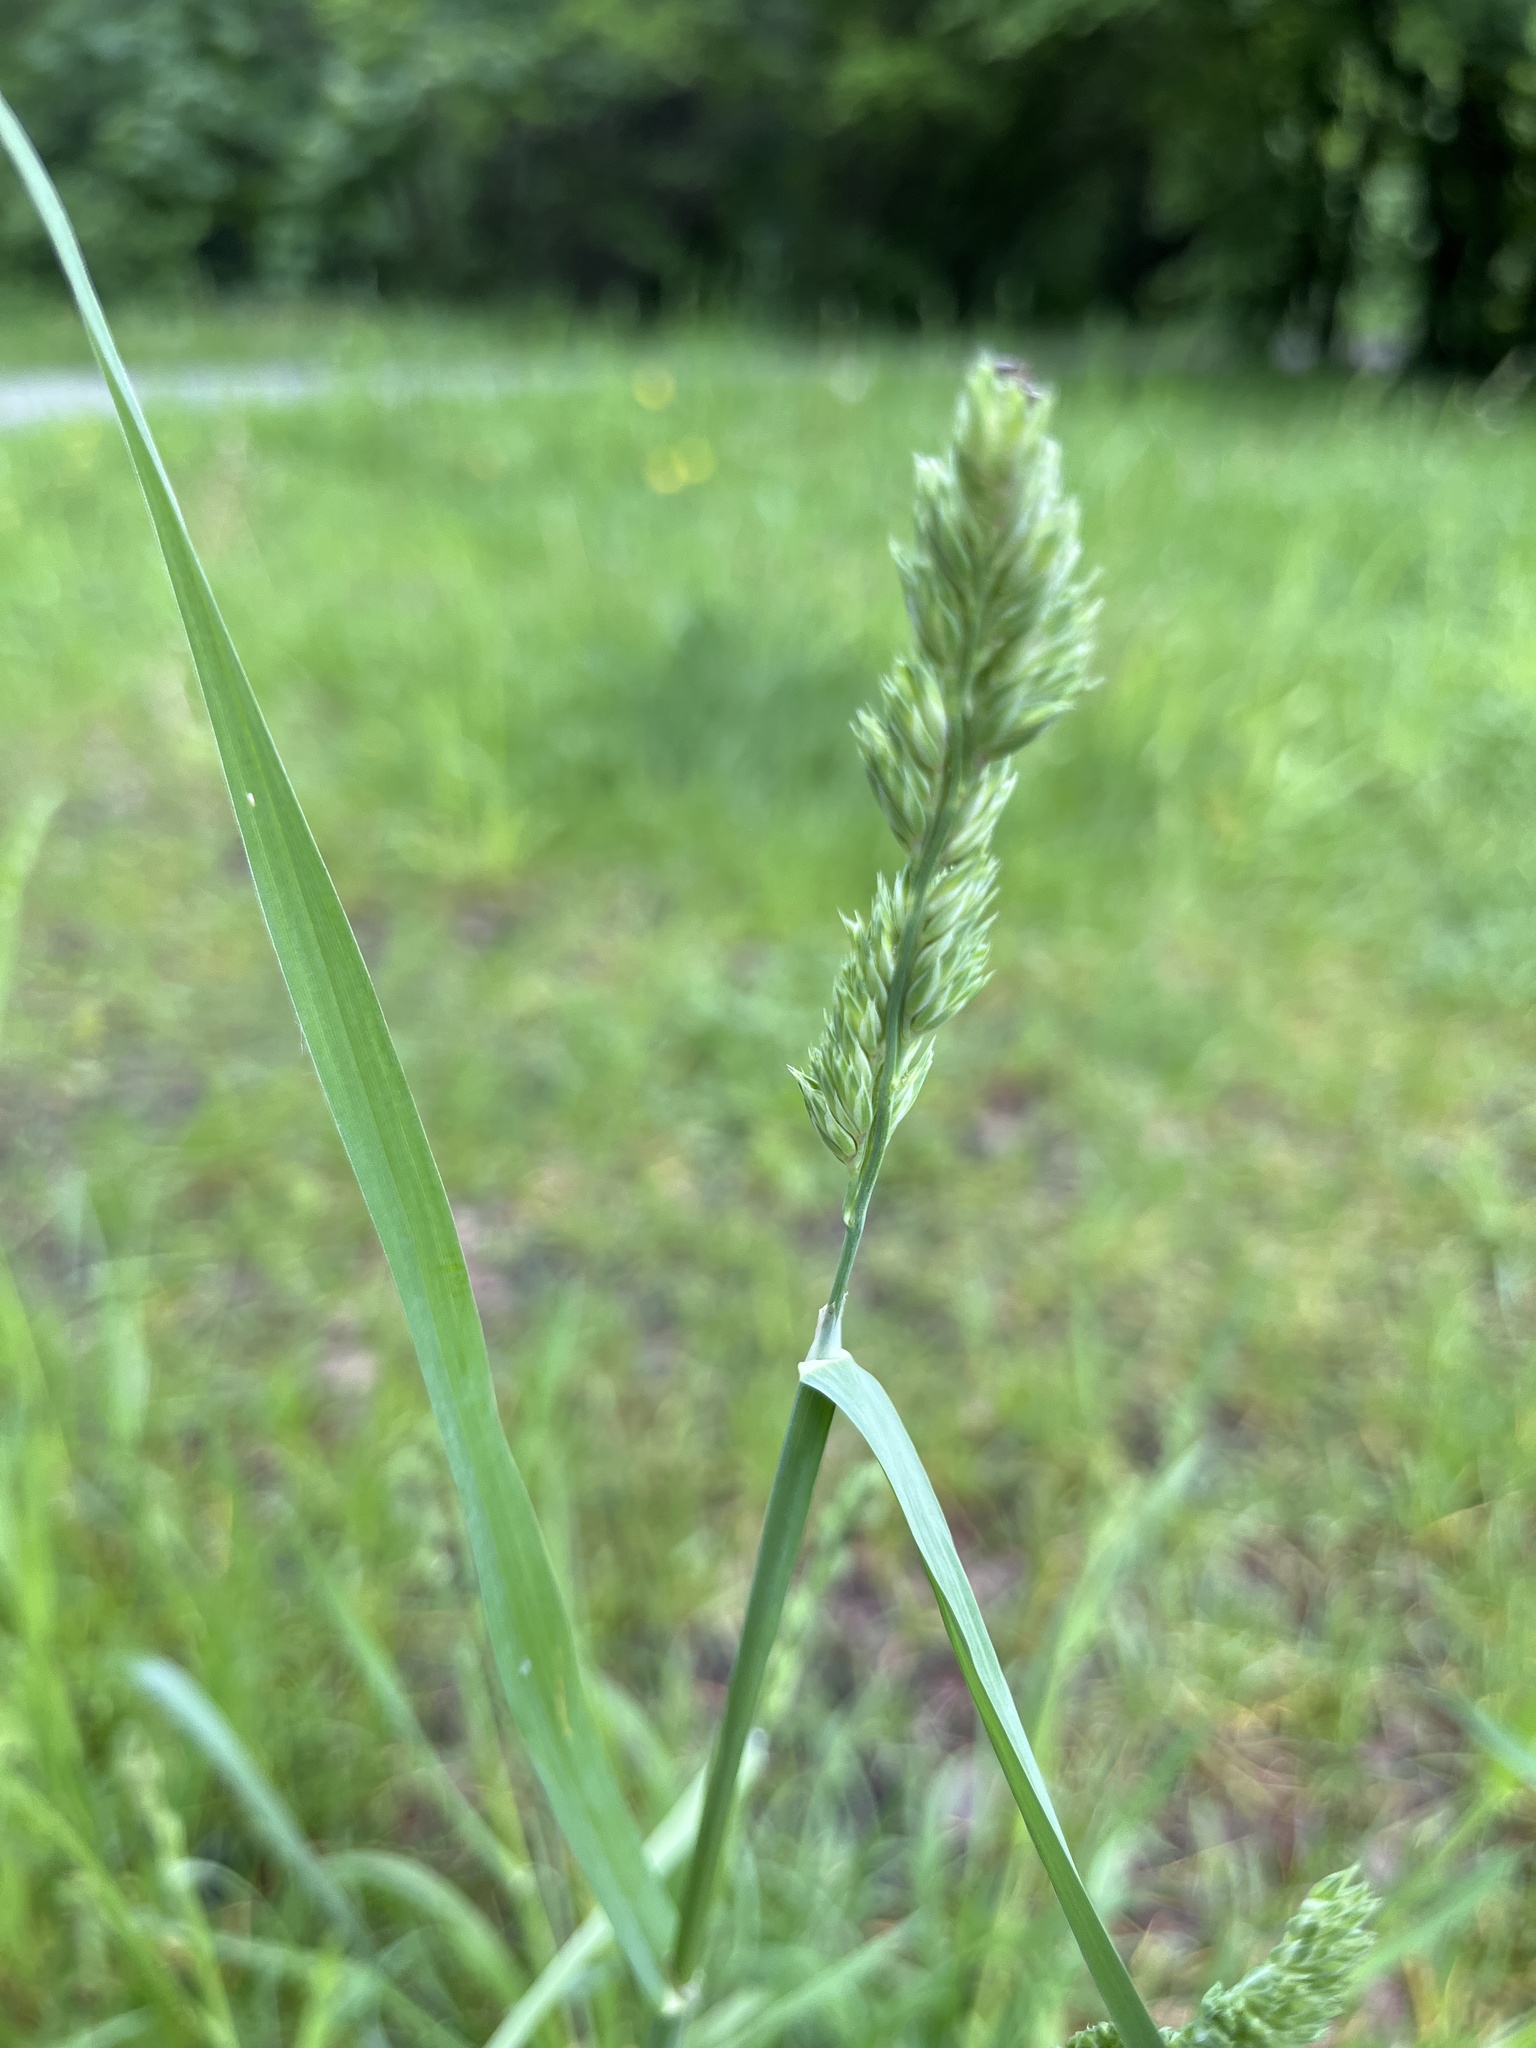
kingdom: Plantae
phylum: Tracheophyta
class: Liliopsida
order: Poales
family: Poaceae
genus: Dactylis
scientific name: Dactylis glomerata
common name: Orchardgrass
